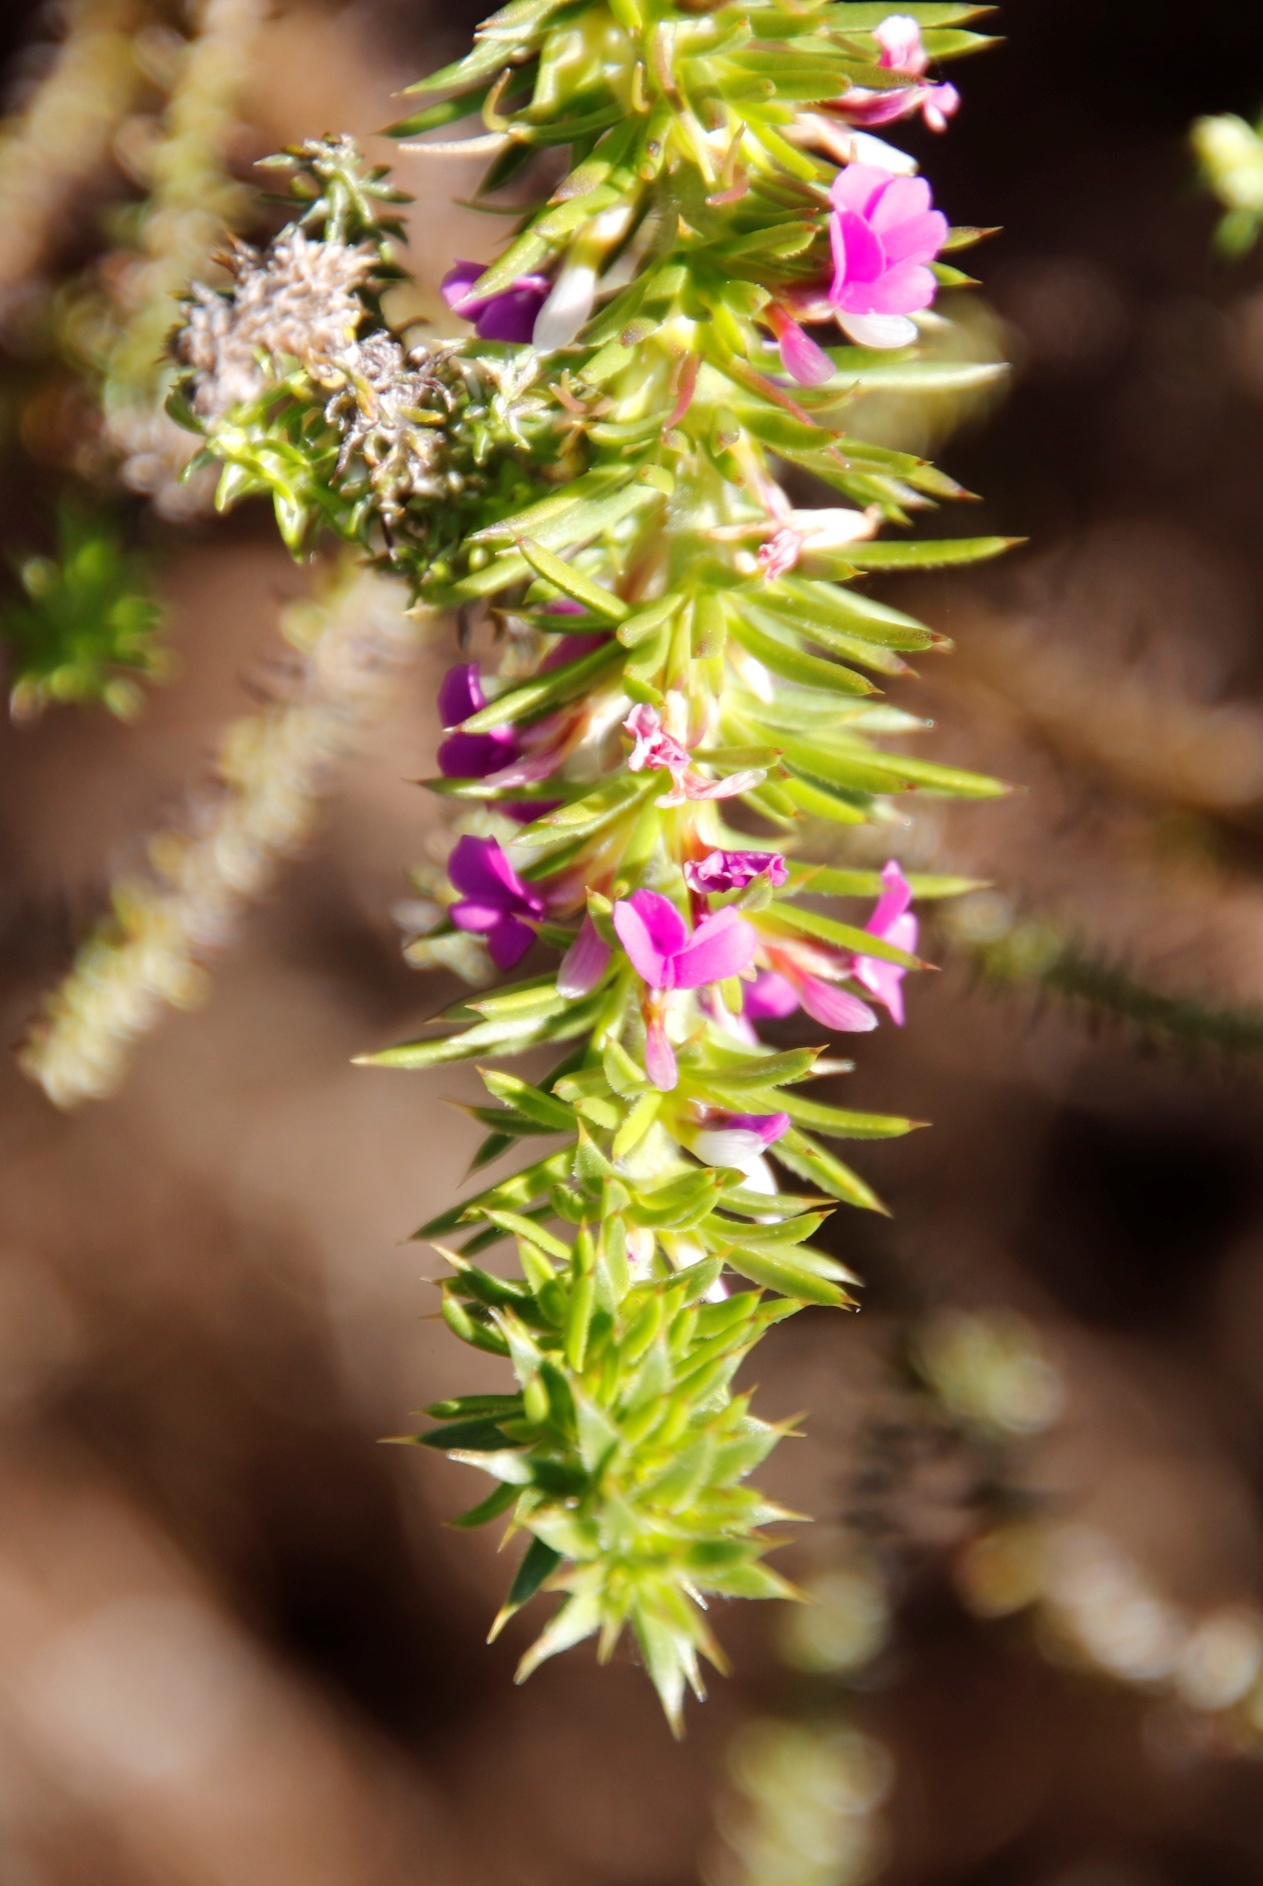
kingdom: Plantae
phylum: Tracheophyta
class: Magnoliopsida
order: Fabales
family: Polygalaceae
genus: Muraltia
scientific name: Muraltia heisteria
